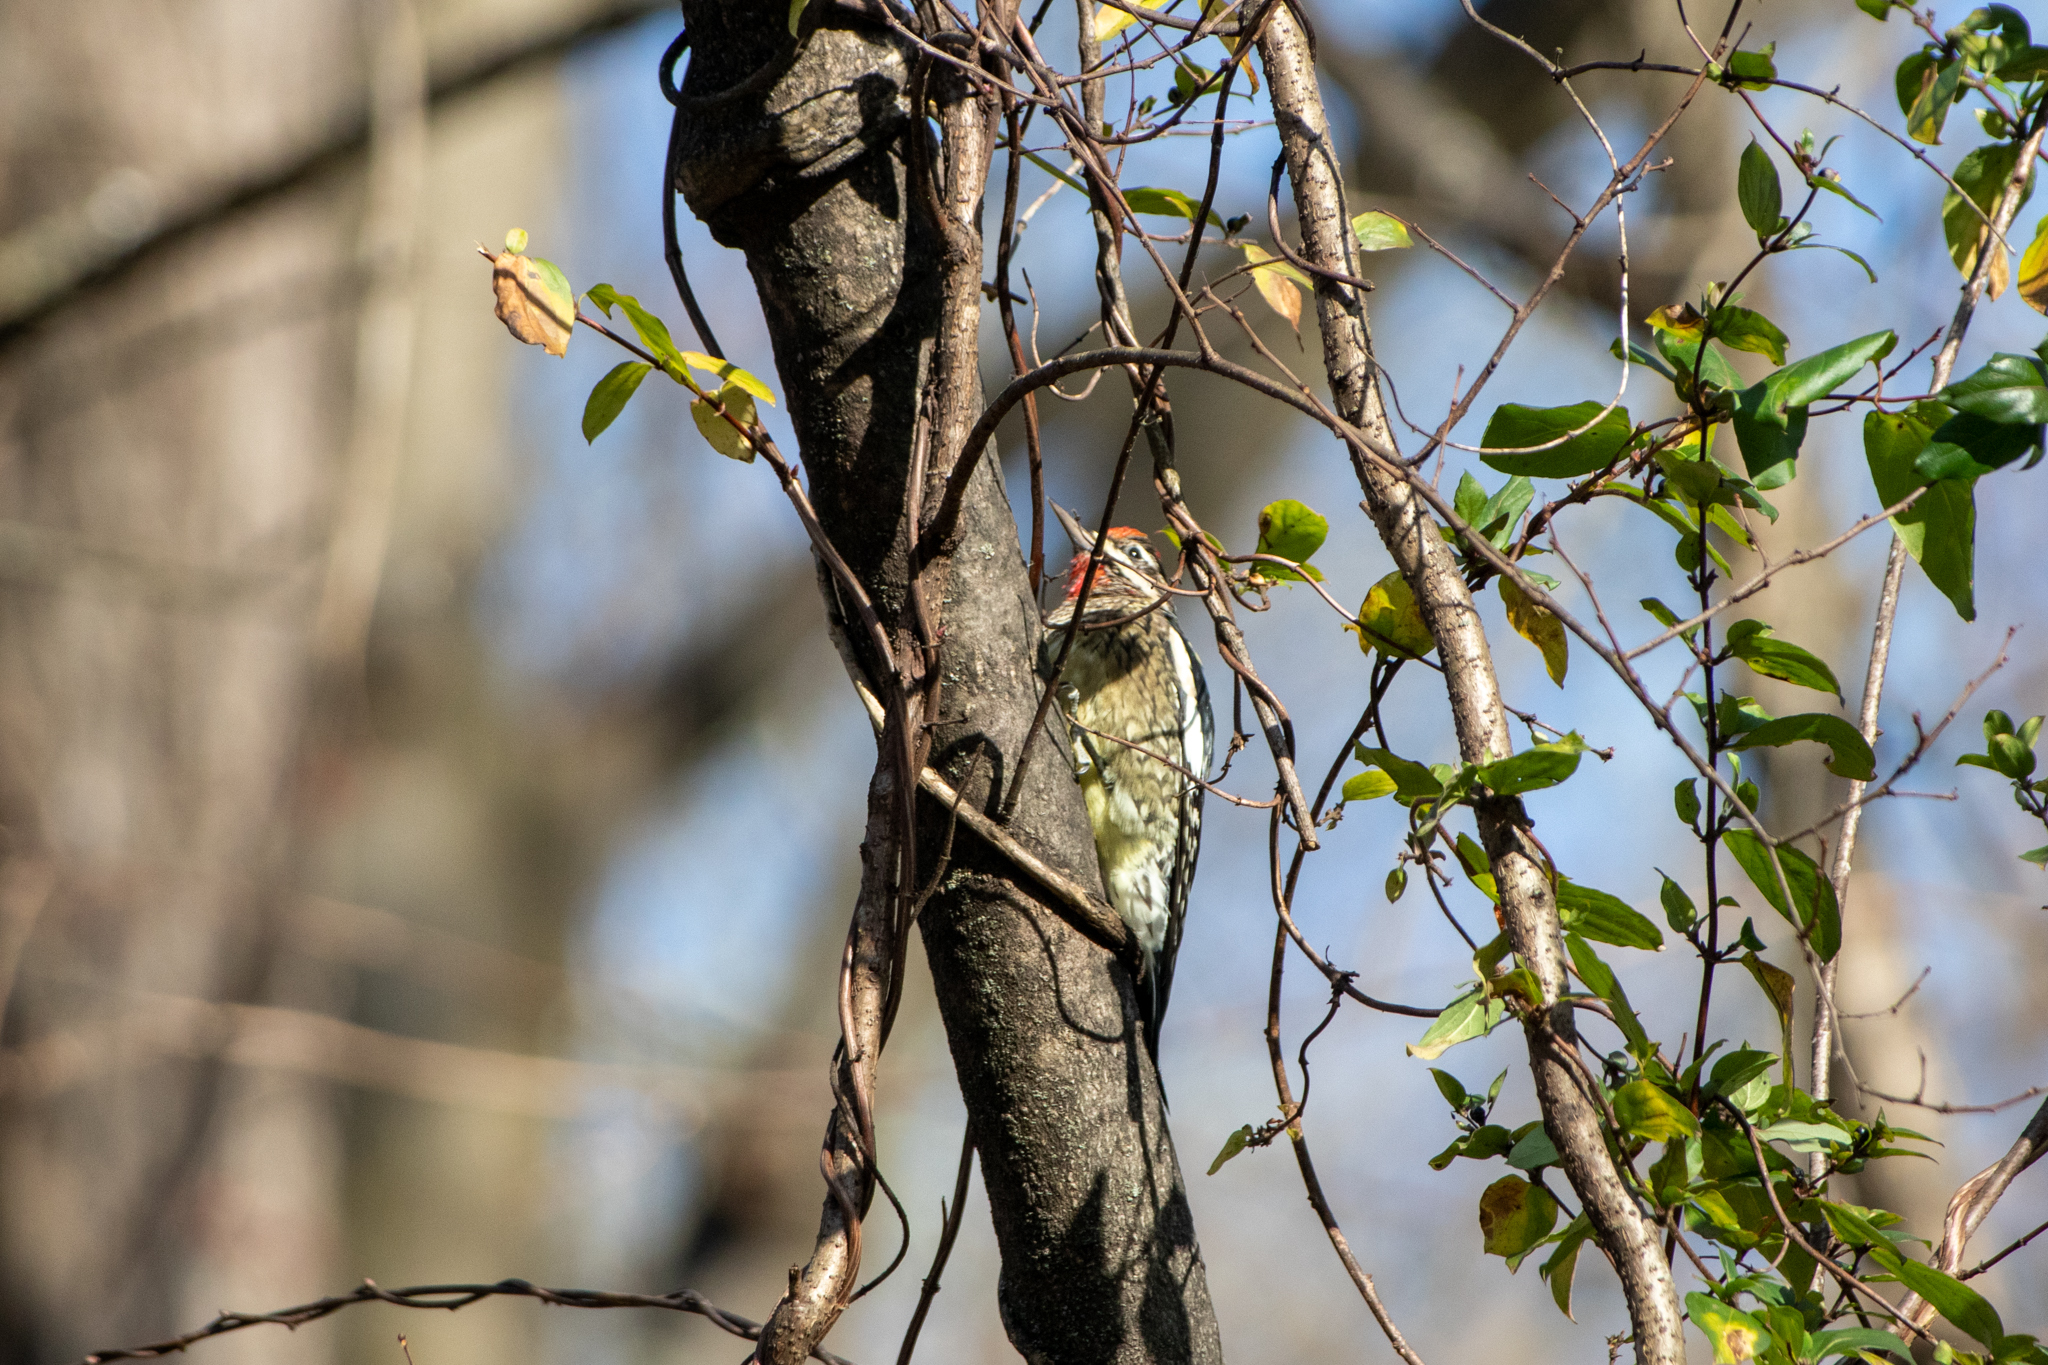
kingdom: Animalia
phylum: Chordata
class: Aves
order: Piciformes
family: Picidae
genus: Sphyrapicus
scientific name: Sphyrapicus varius
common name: Yellow-bellied sapsucker
